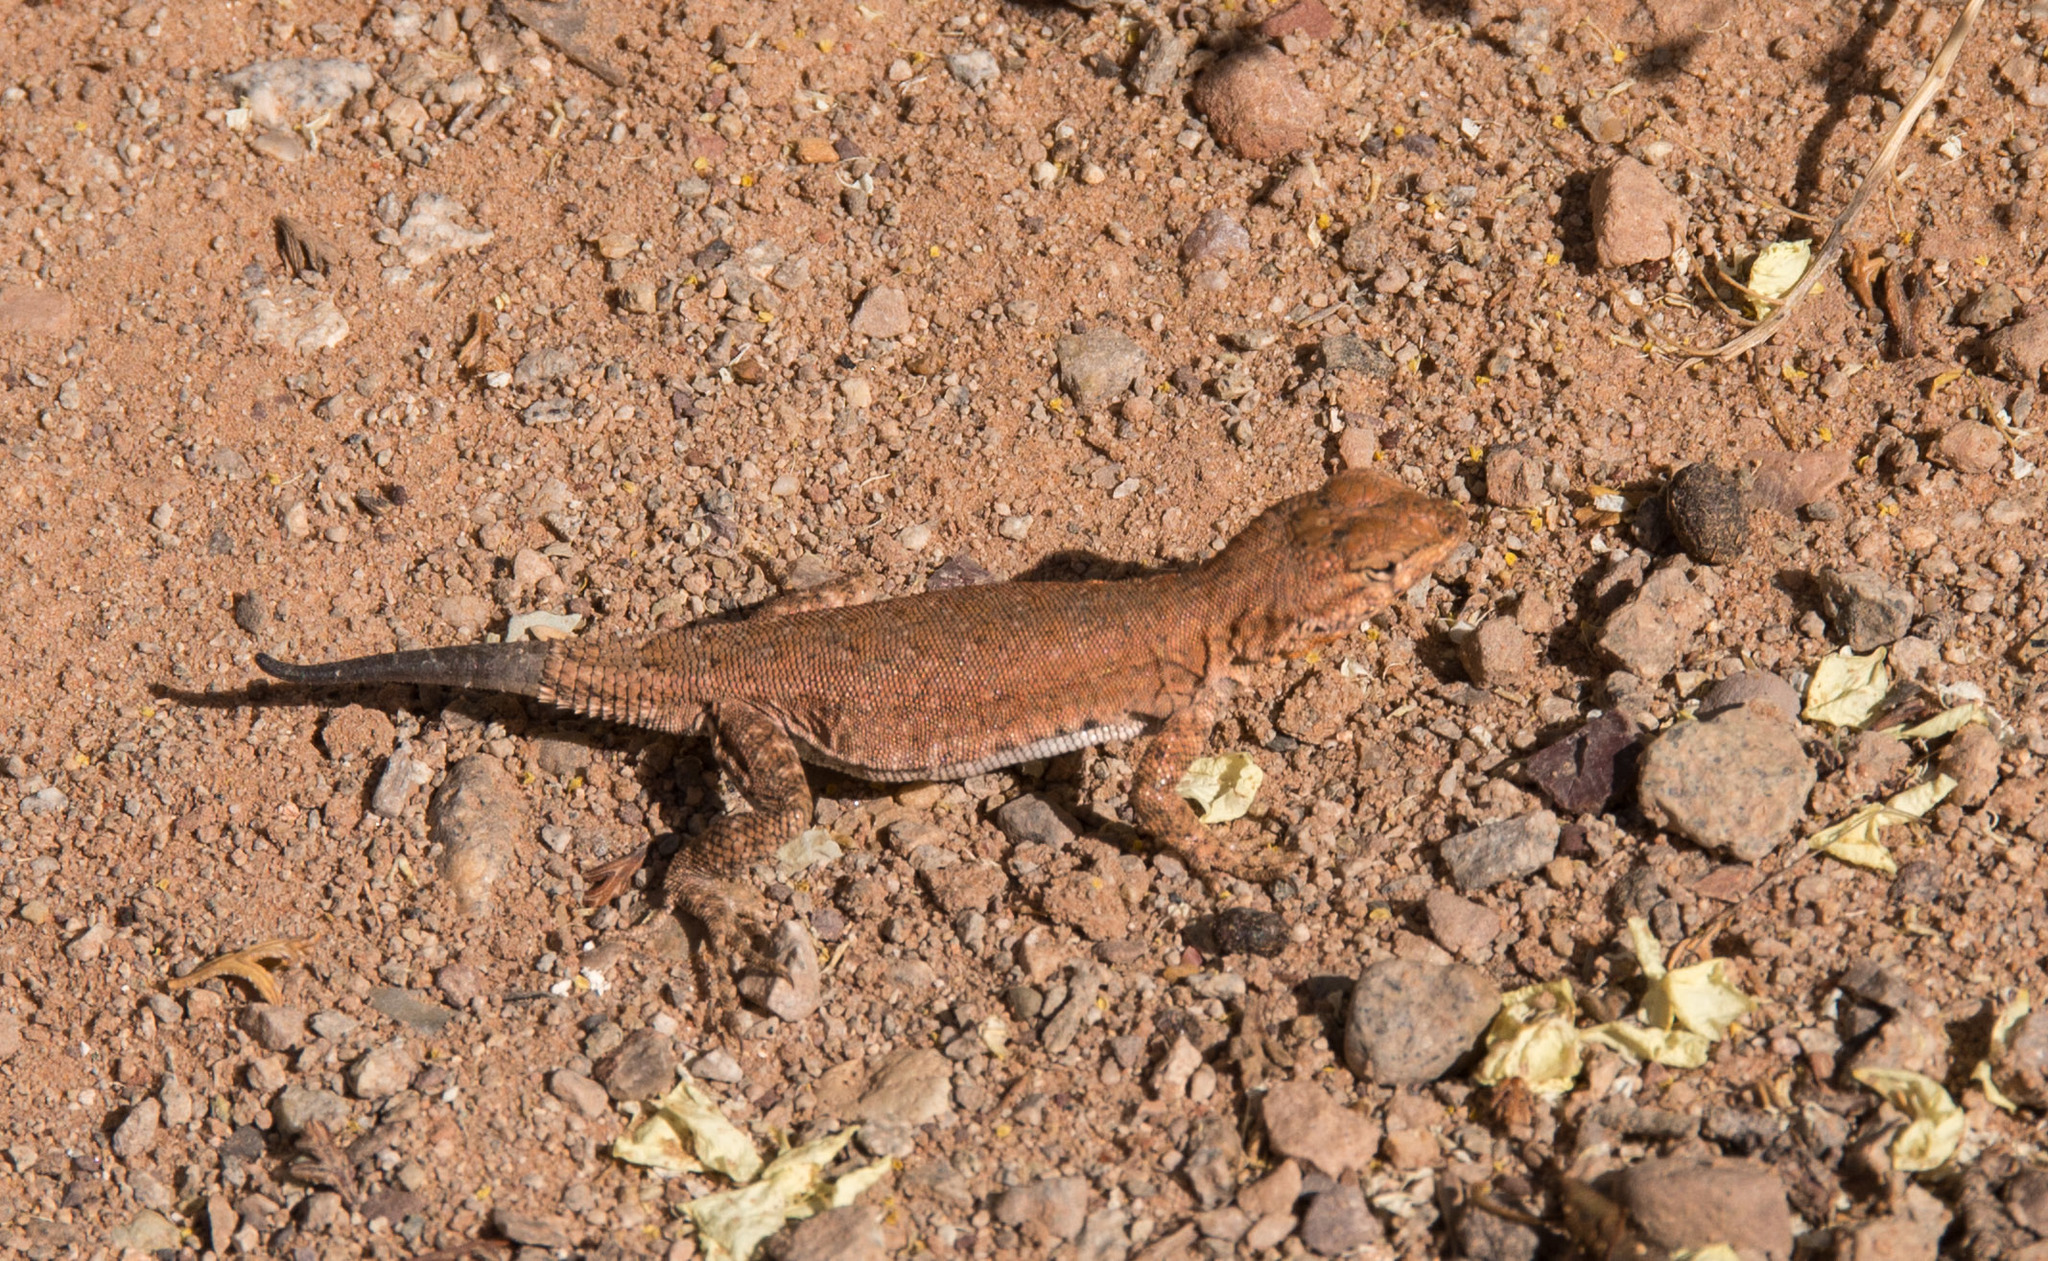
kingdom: Animalia
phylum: Chordata
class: Squamata
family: Phrynosomatidae
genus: Uta
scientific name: Uta stansburiana
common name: Side-blotched lizard
